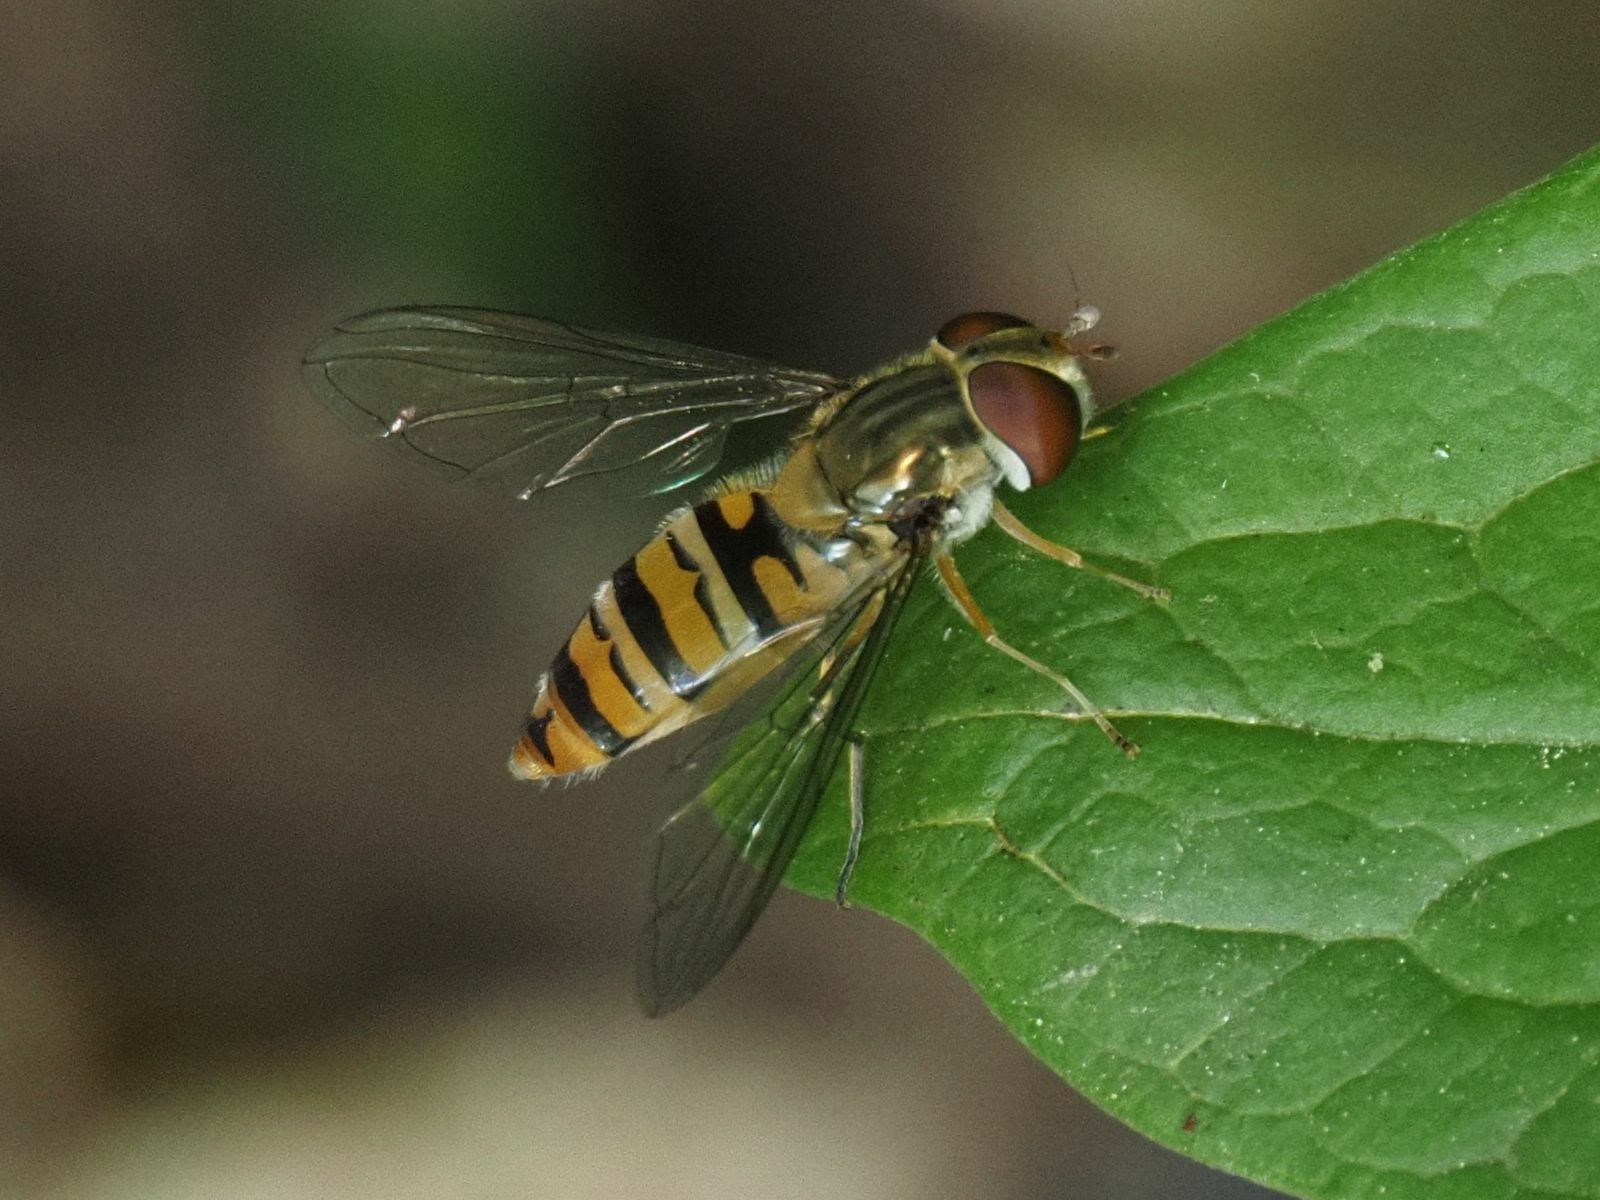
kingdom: Animalia
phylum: Arthropoda
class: Insecta
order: Diptera
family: Syrphidae
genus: Episyrphus
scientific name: Episyrphus balteatus
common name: Marmalade hoverfly
